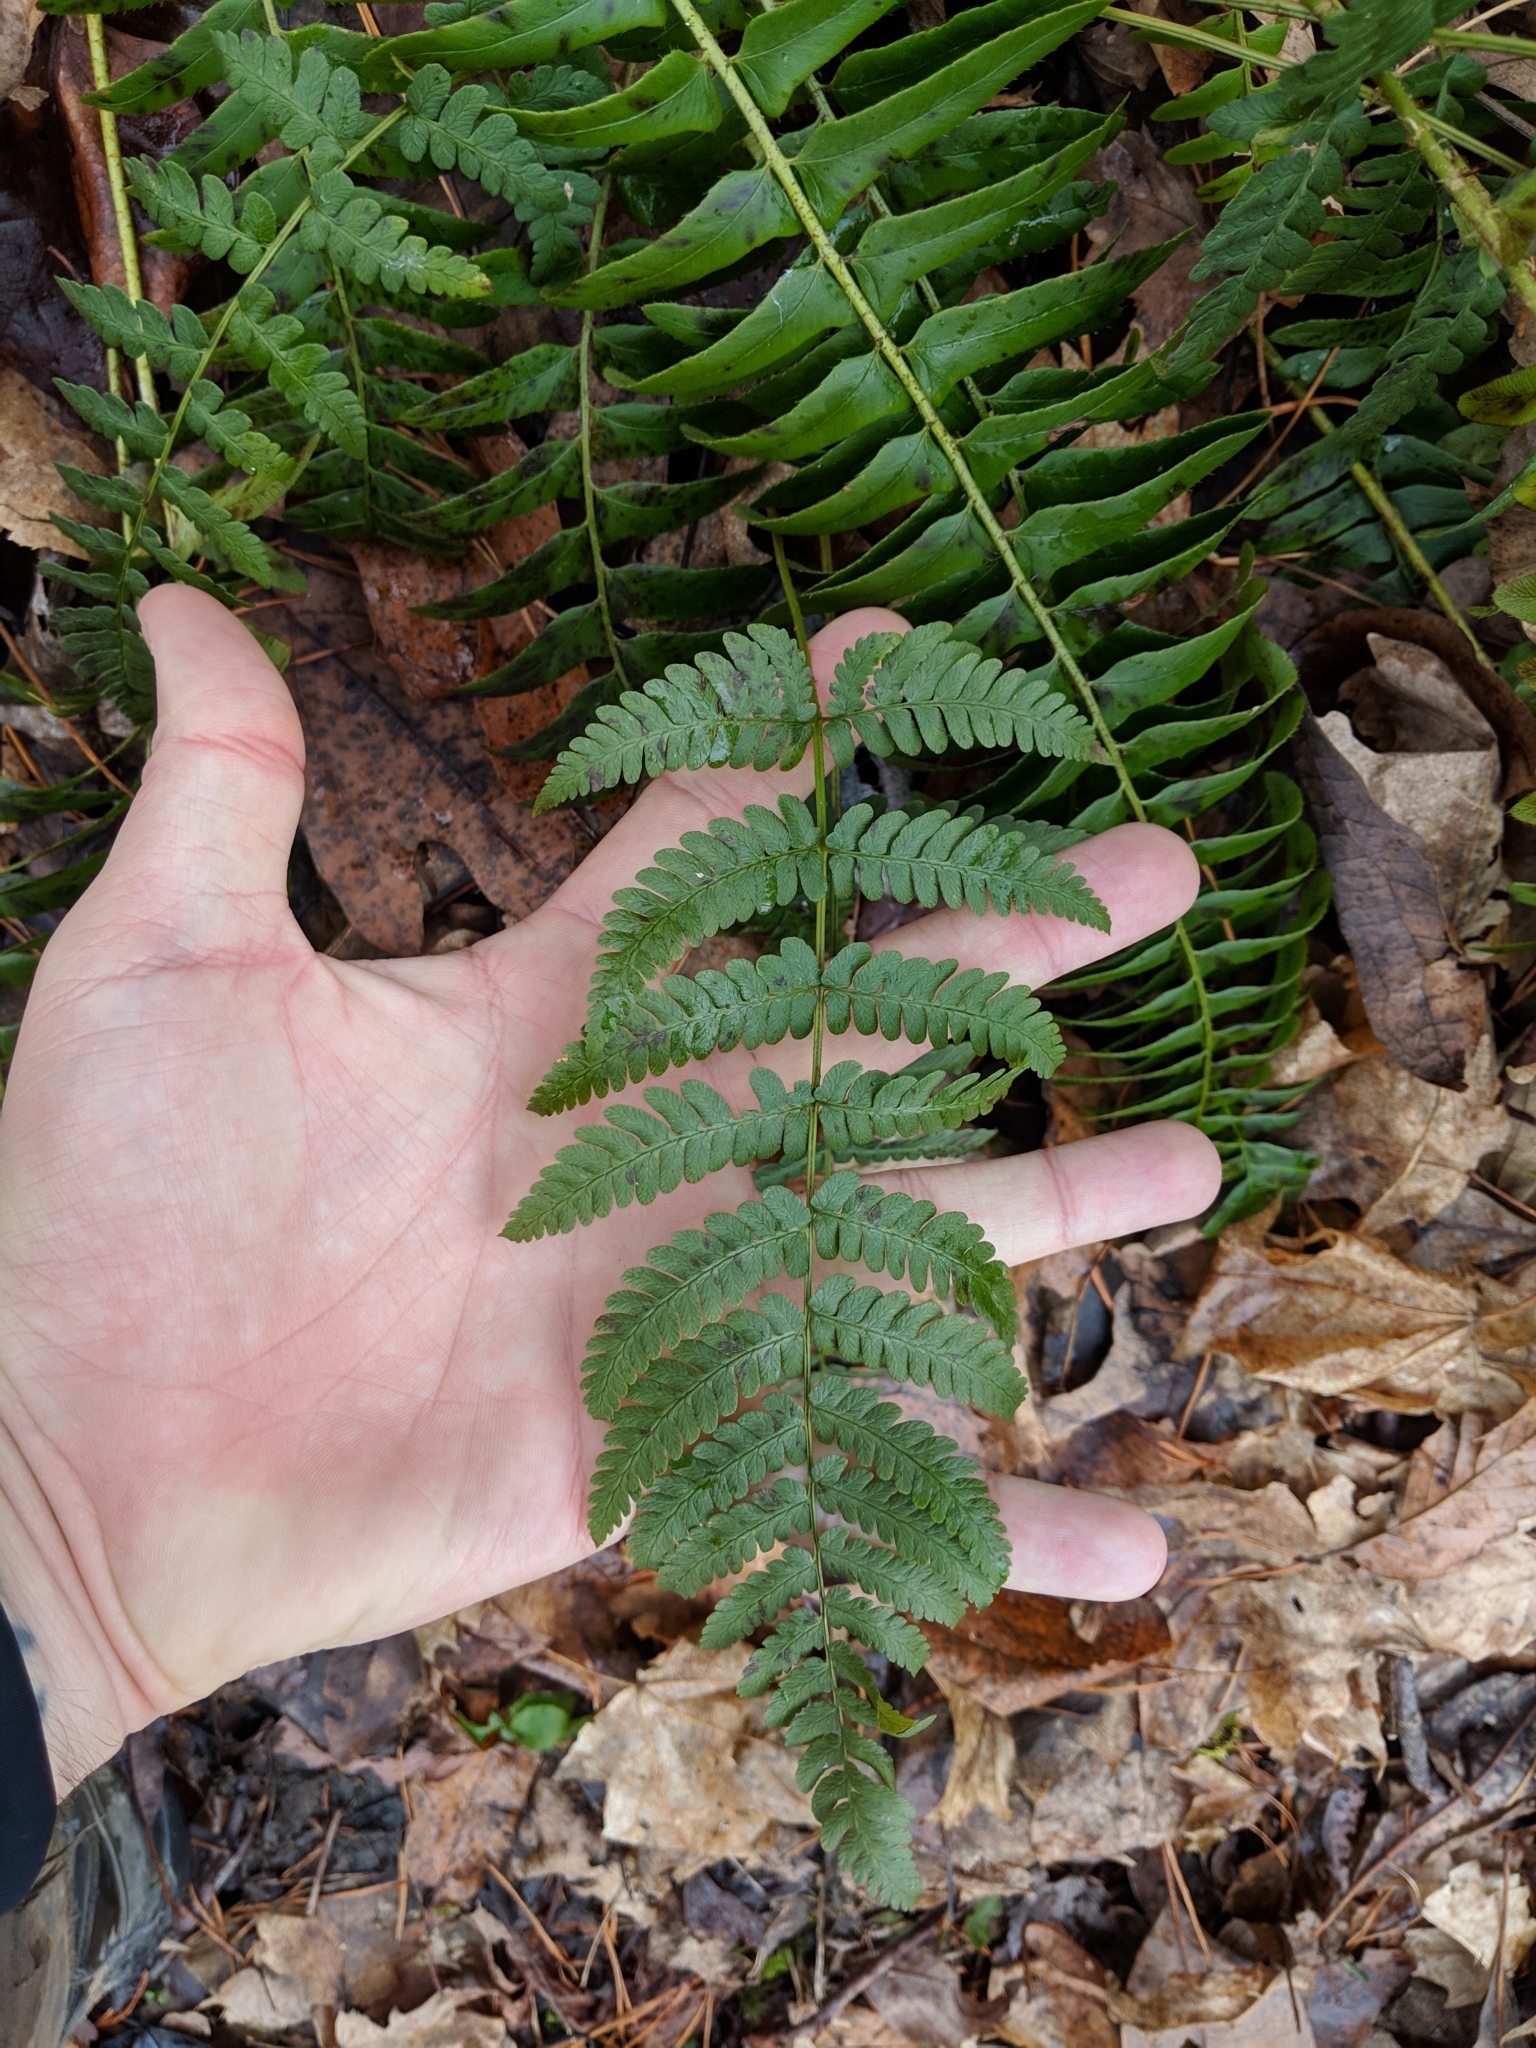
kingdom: Plantae
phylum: Tracheophyta
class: Polypodiopsida
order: Polypodiales
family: Dryopteridaceae
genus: Dryopteris
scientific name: Dryopteris marginalis
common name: Marginal wood fern
